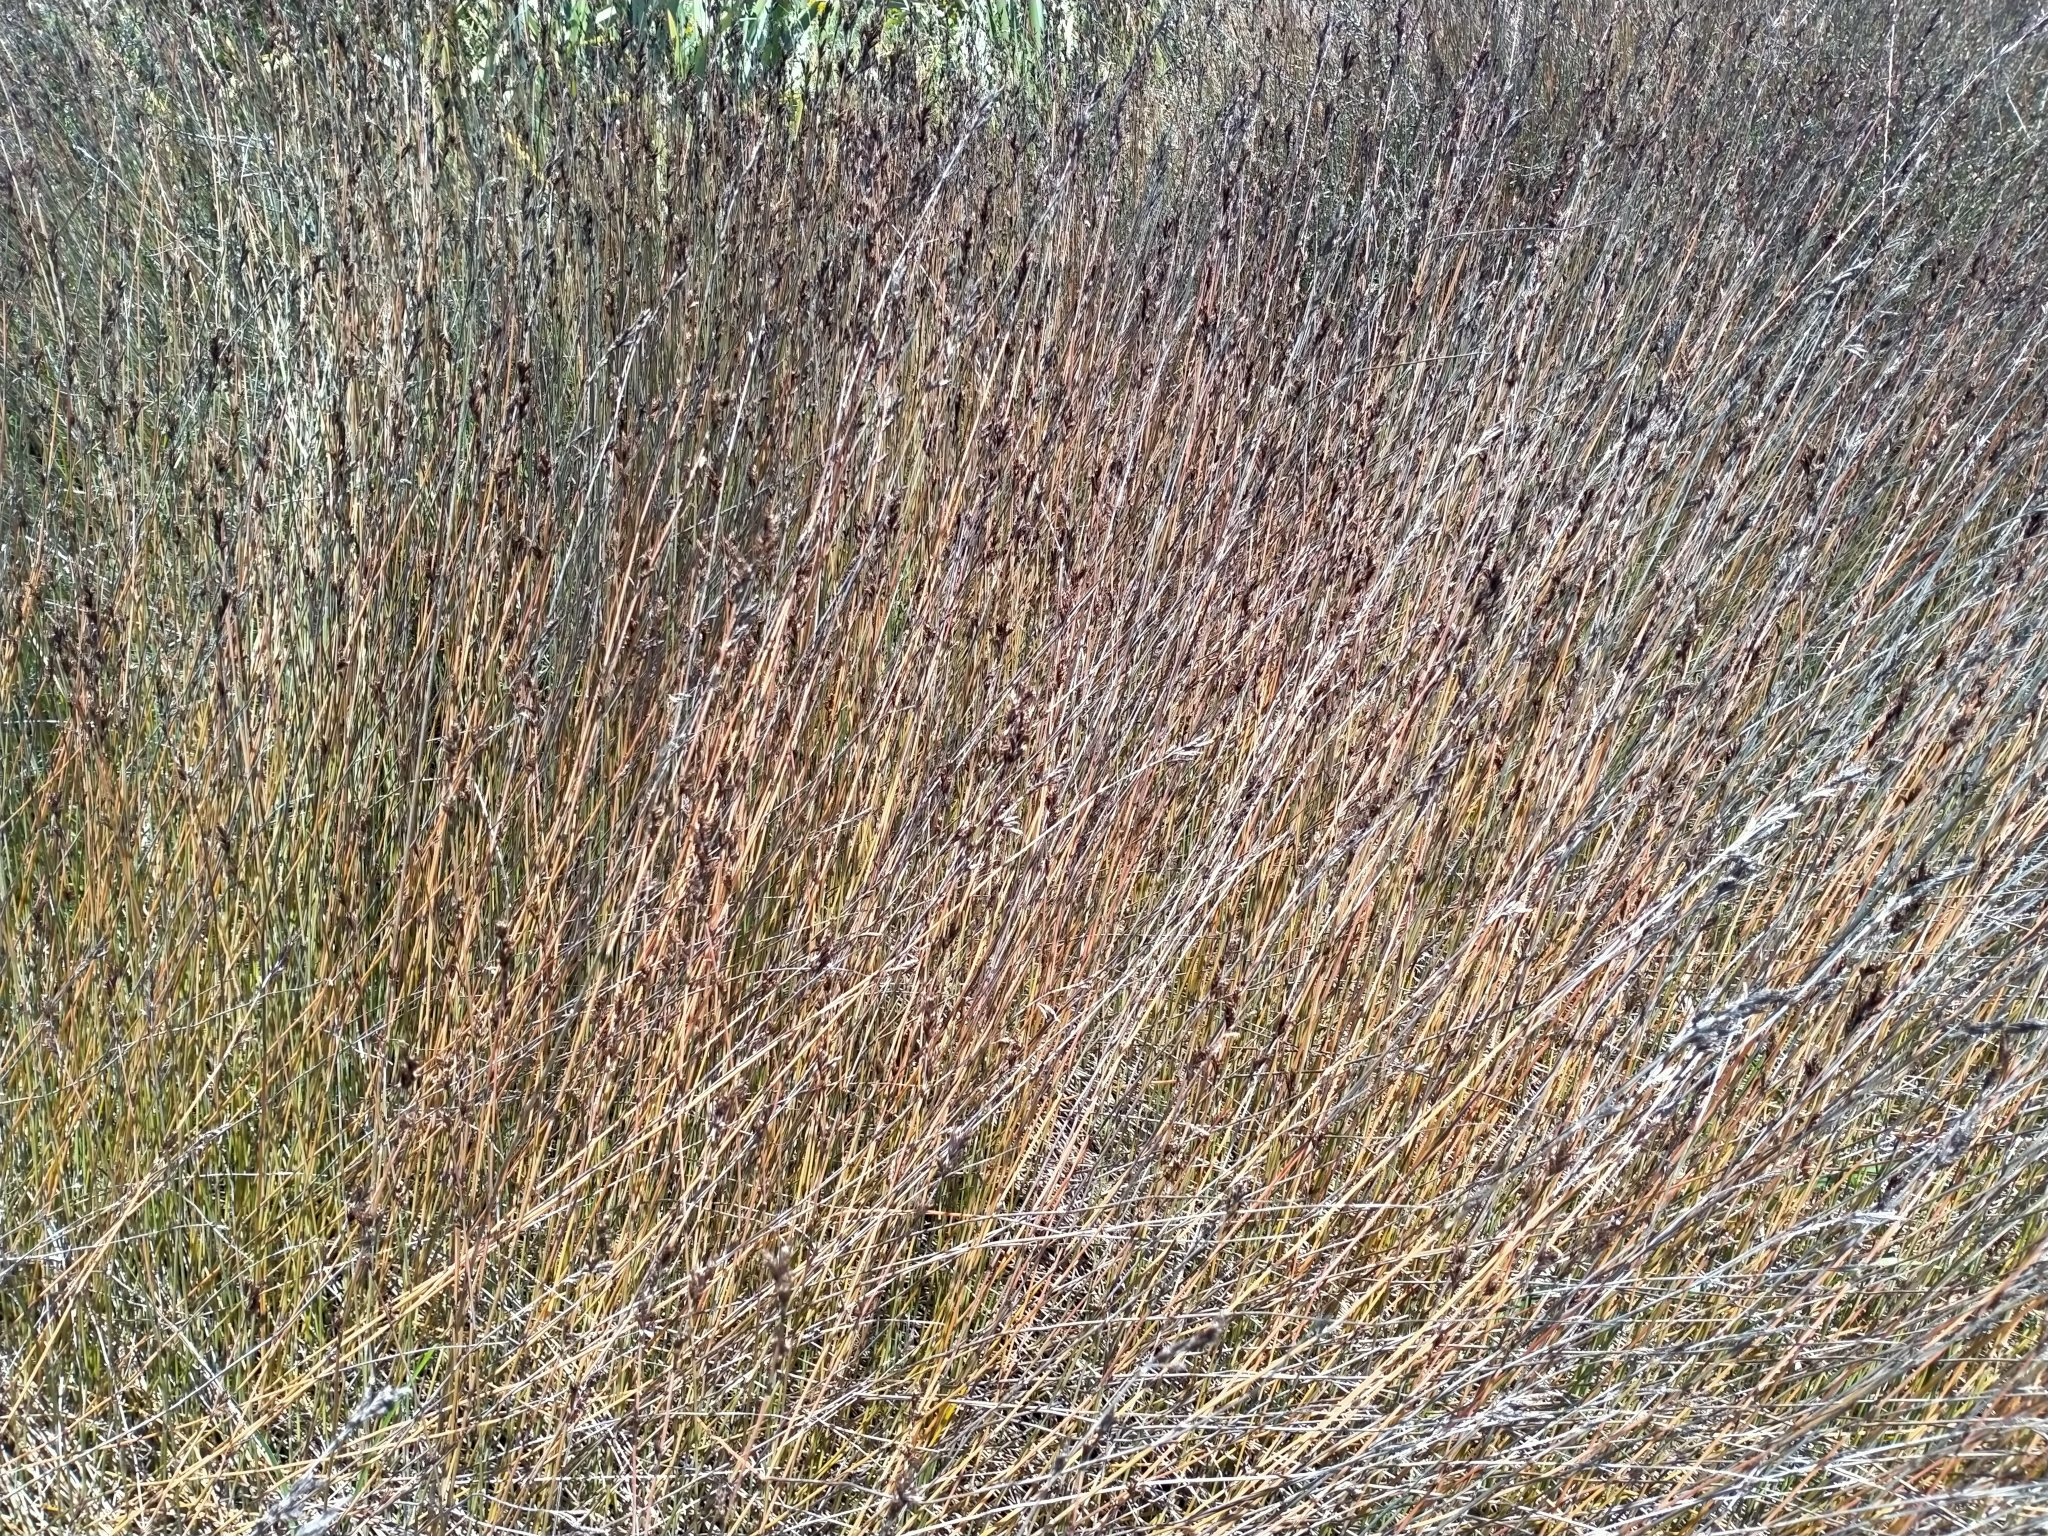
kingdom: Plantae
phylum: Tracheophyta
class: Liliopsida
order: Poales
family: Restionaceae
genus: Apodasmia
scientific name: Apodasmia similis
